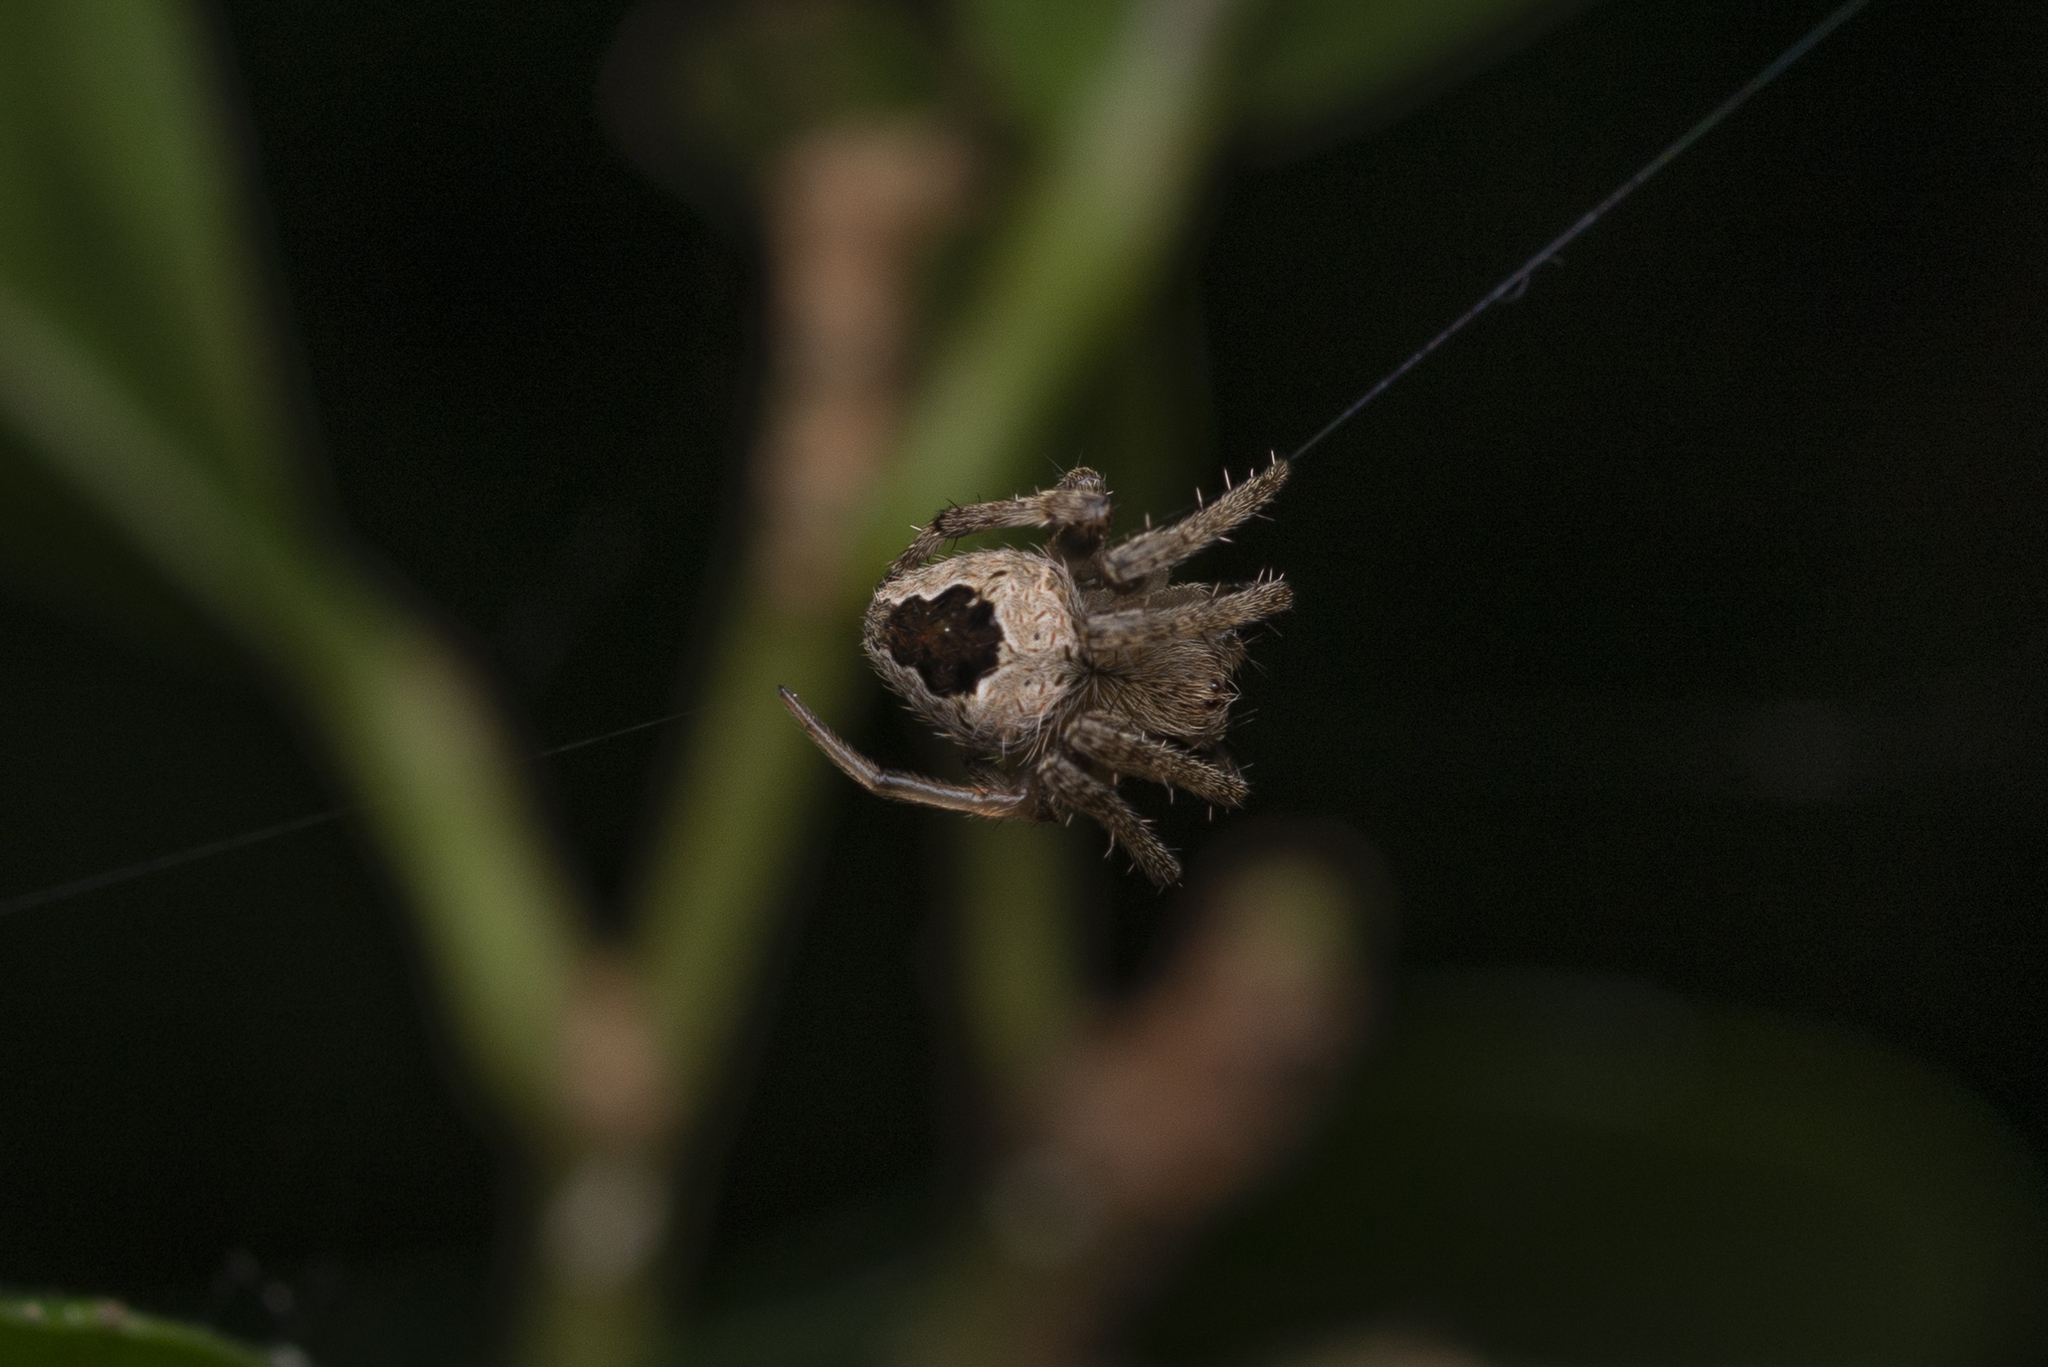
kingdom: Animalia
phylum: Arthropoda
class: Arachnida
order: Araneae
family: Araneidae
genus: Neoscona
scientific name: Neoscona vigilans
